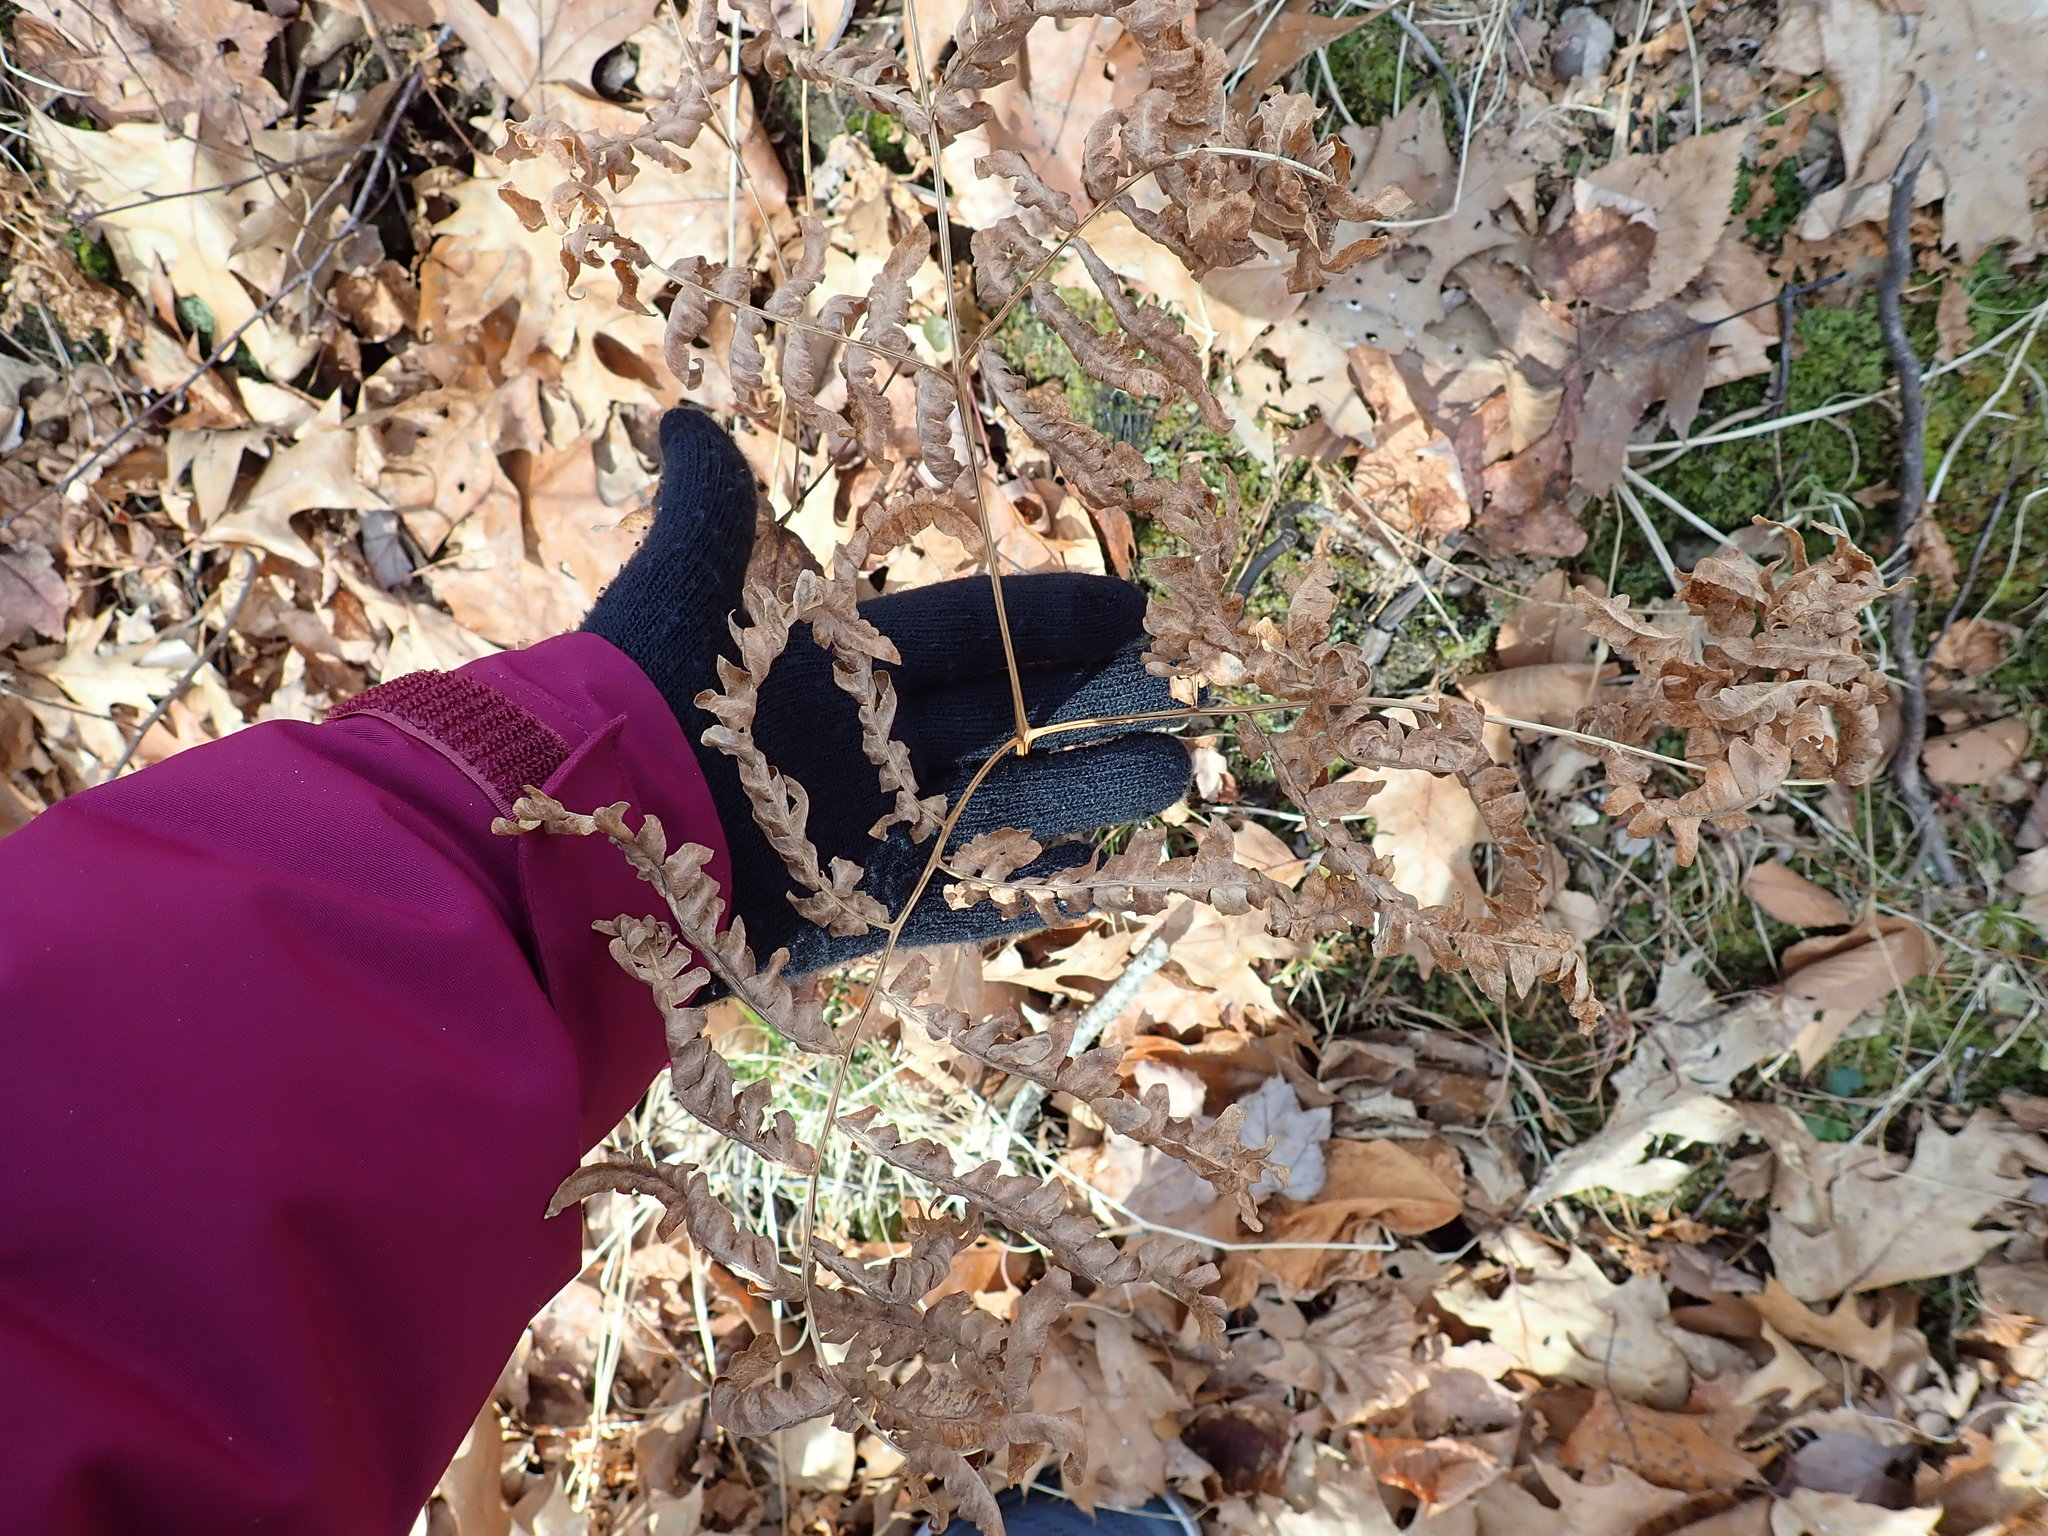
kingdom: Plantae
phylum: Tracheophyta
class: Polypodiopsida
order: Polypodiales
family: Dennstaedtiaceae
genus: Pteridium
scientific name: Pteridium aquilinum
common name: Bracken
